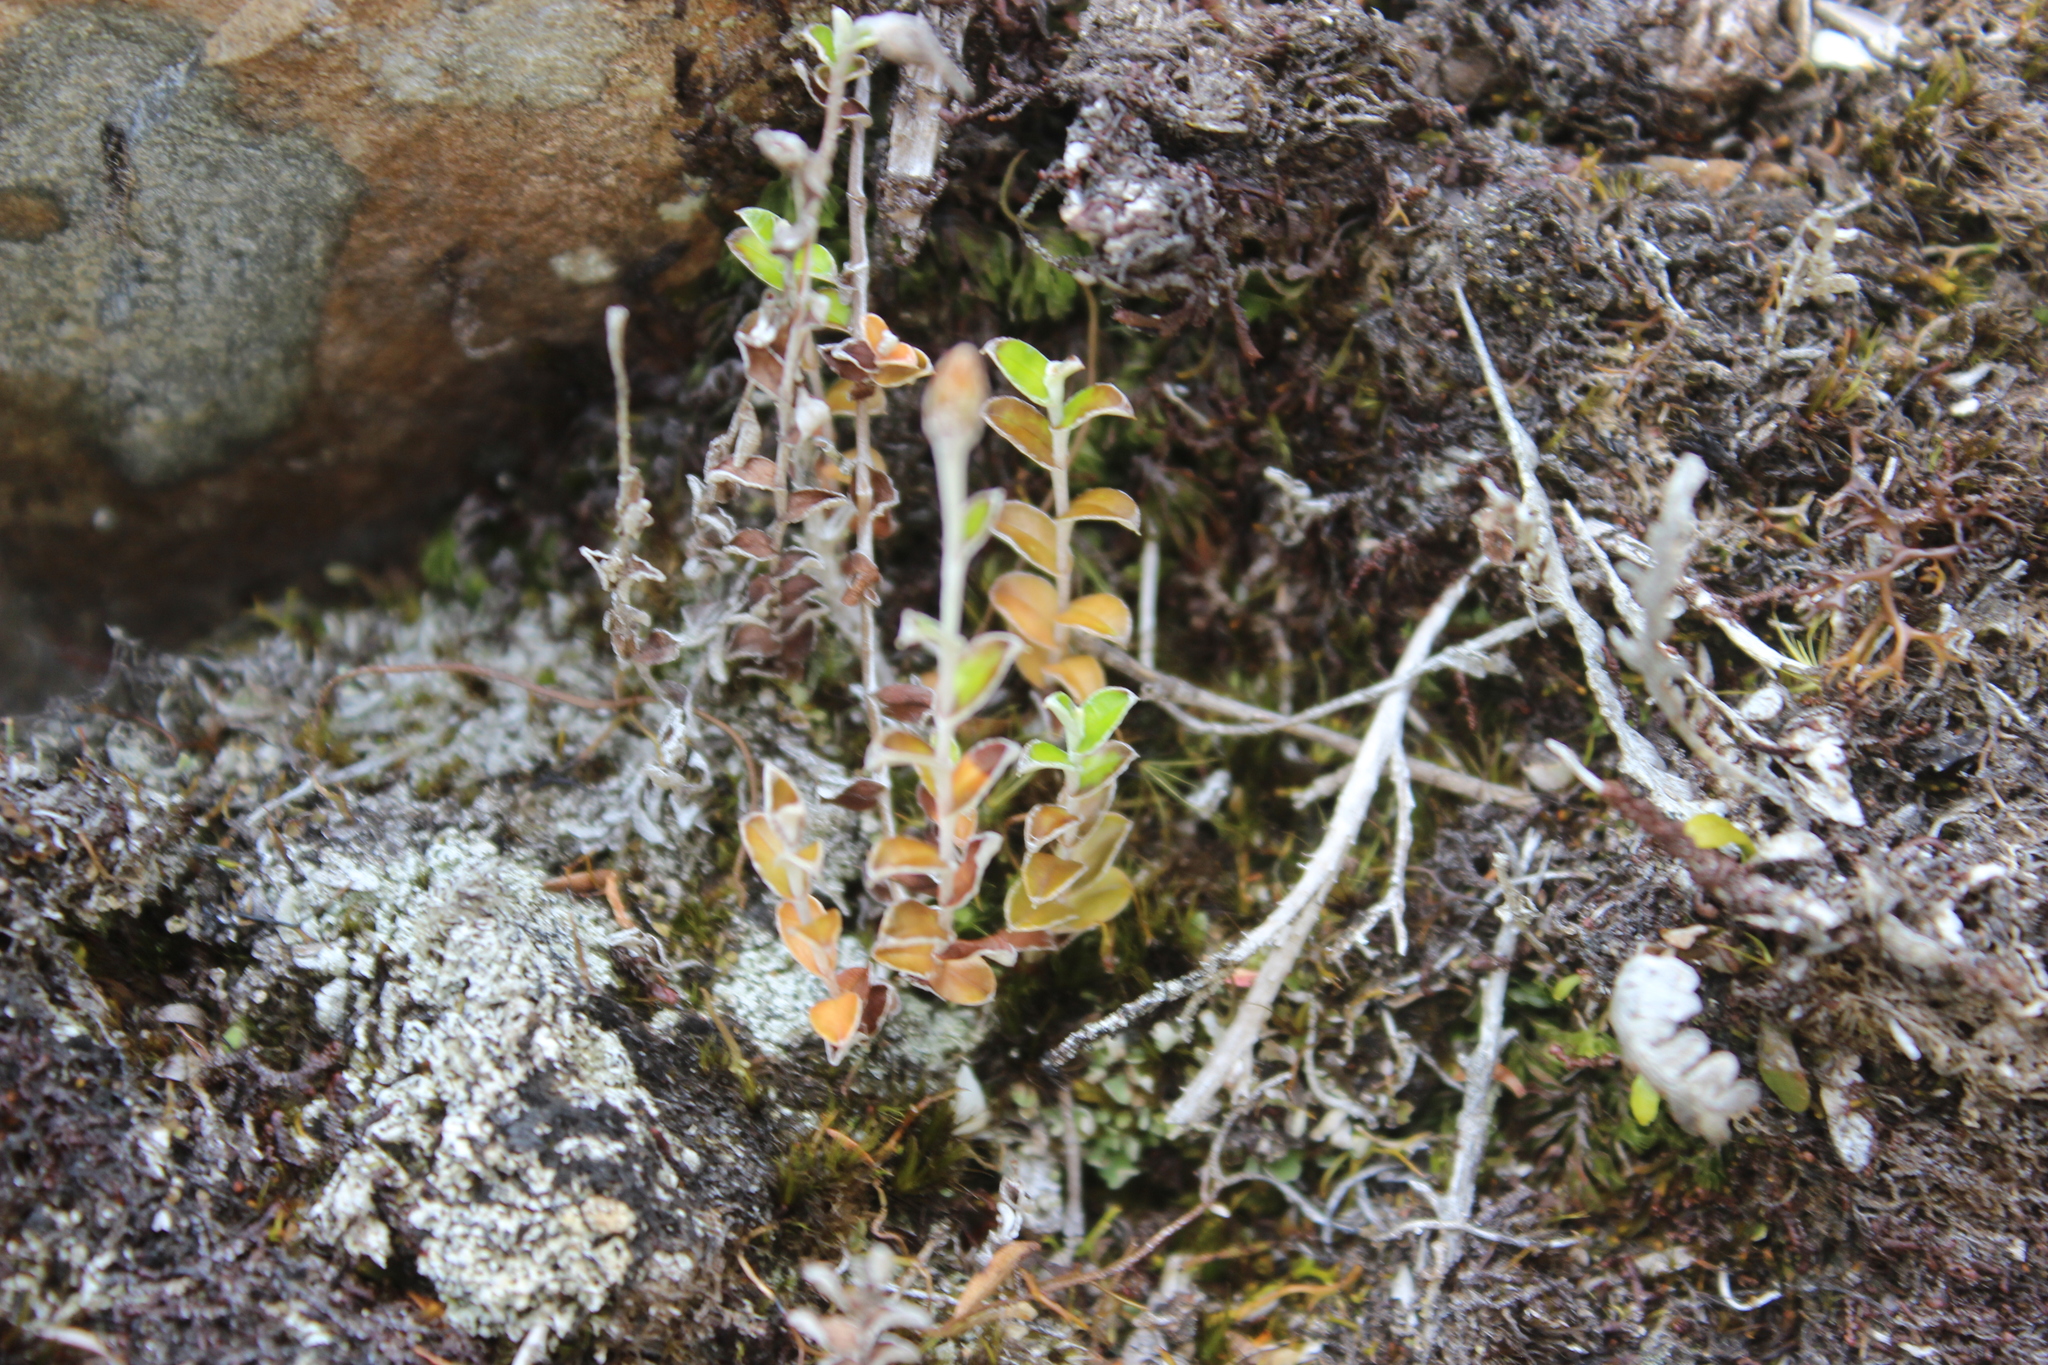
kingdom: Plantae
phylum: Tracheophyta
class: Magnoliopsida
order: Asterales
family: Asteraceae
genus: Helichrysum
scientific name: Helichrysum filicaule
